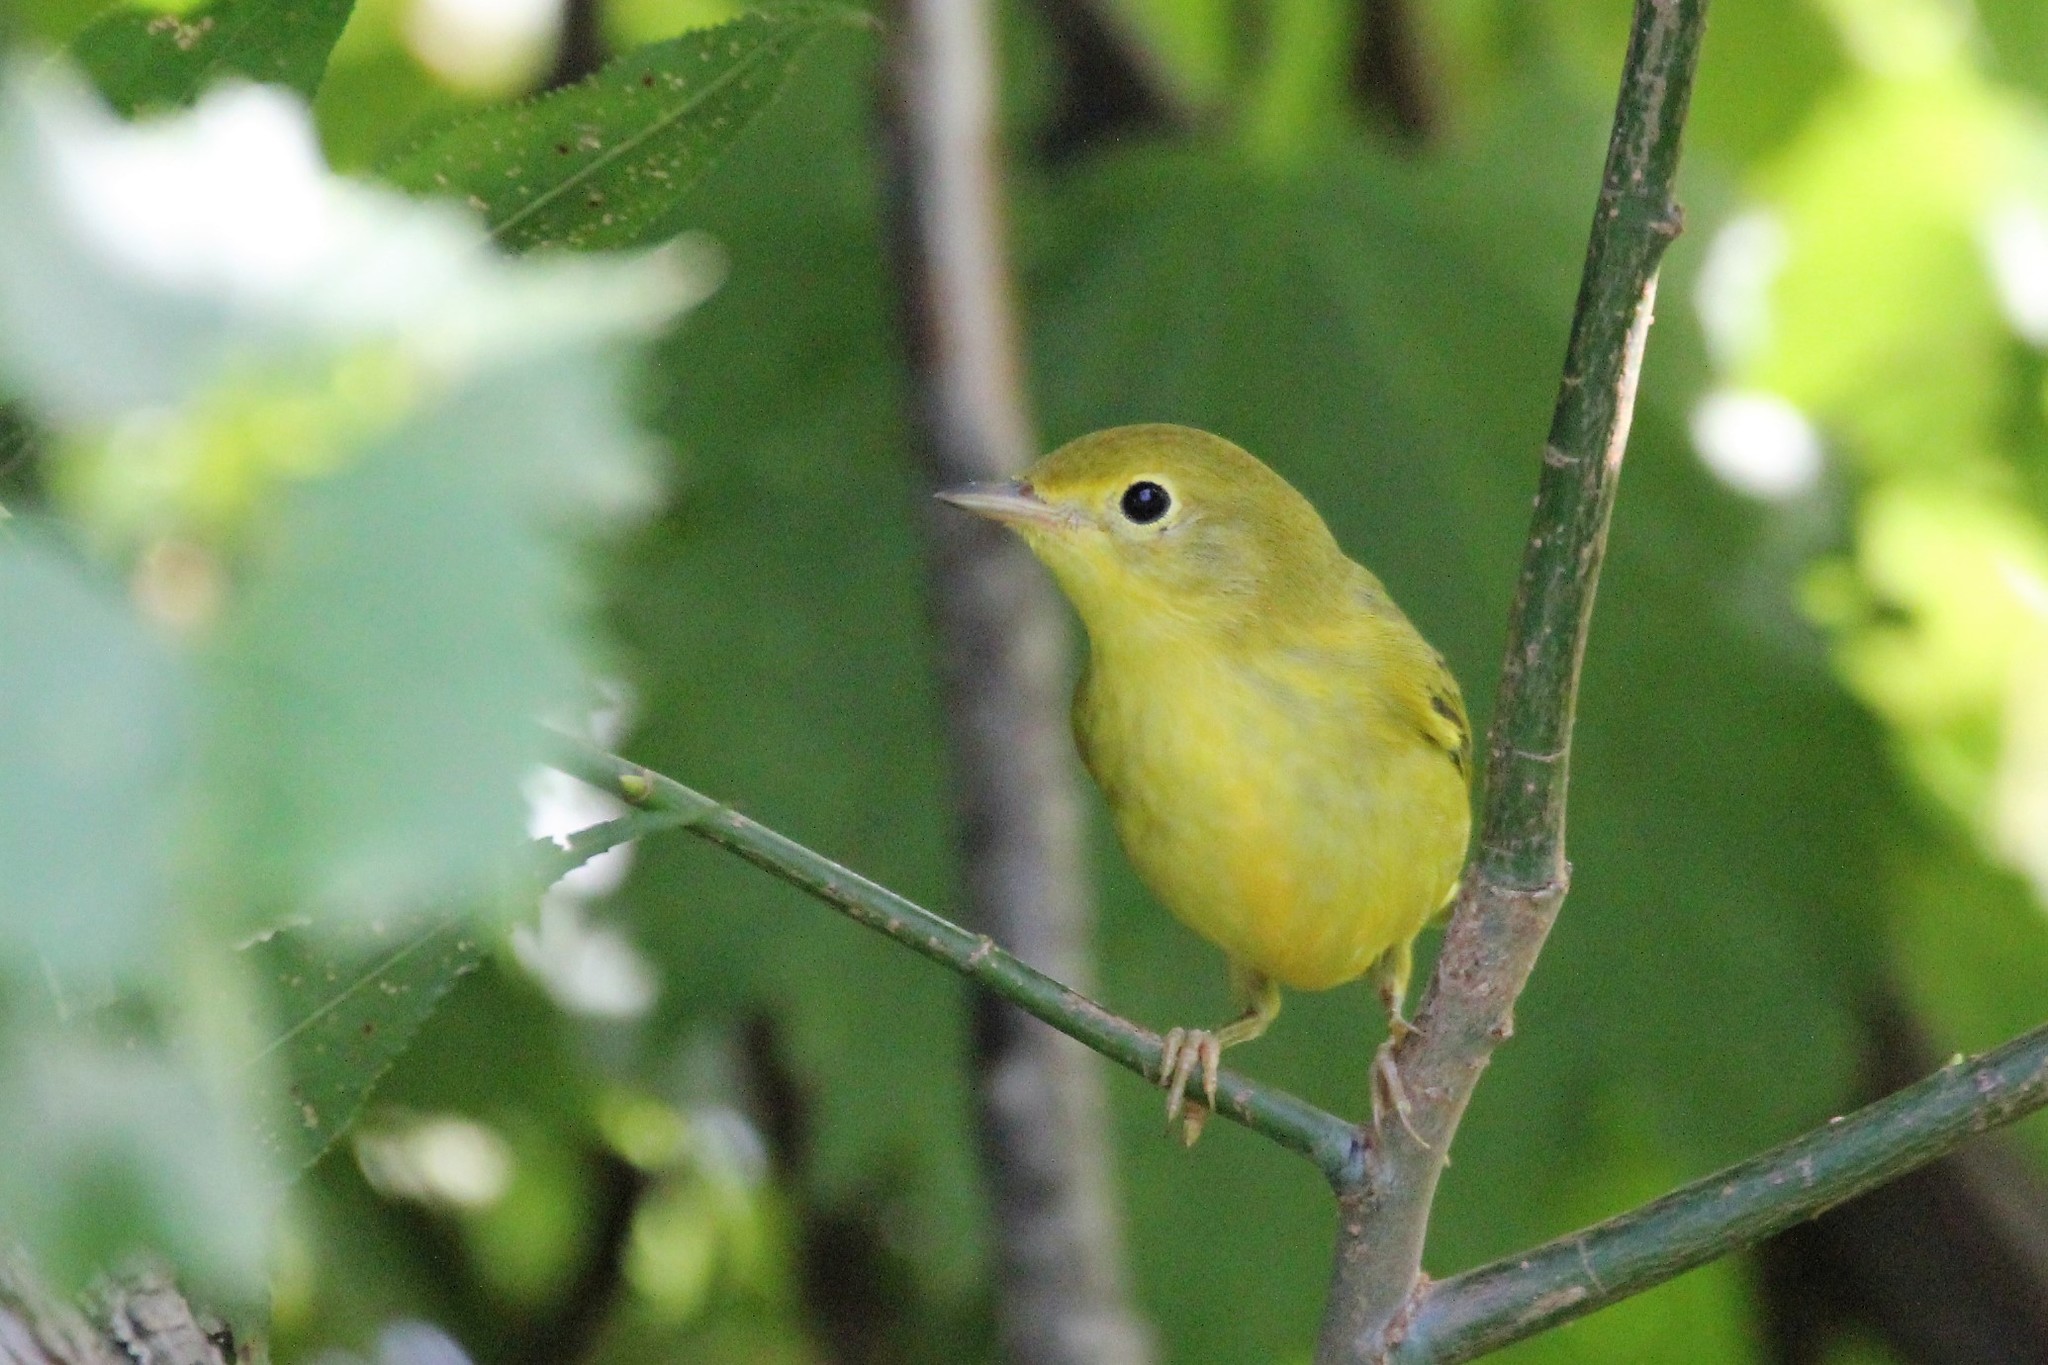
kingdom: Animalia
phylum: Chordata
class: Aves
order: Passeriformes
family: Parulidae
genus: Setophaga
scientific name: Setophaga petechia
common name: Yellow warbler
